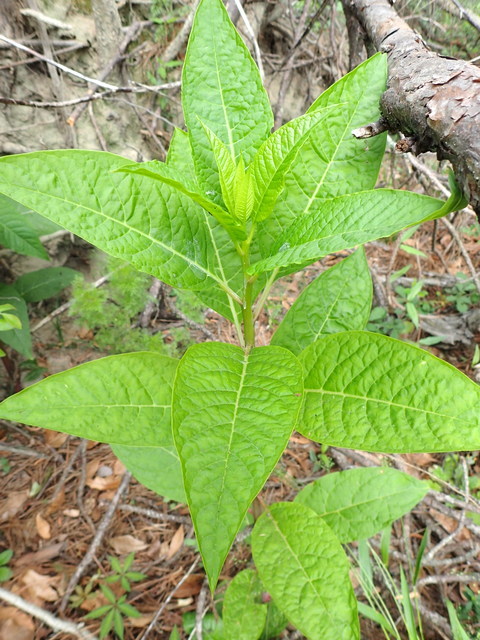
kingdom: Plantae
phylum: Tracheophyta
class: Magnoliopsida
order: Caryophyllales
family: Phytolaccaceae
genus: Phytolacca
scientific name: Phytolacca americana
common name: American pokeweed
